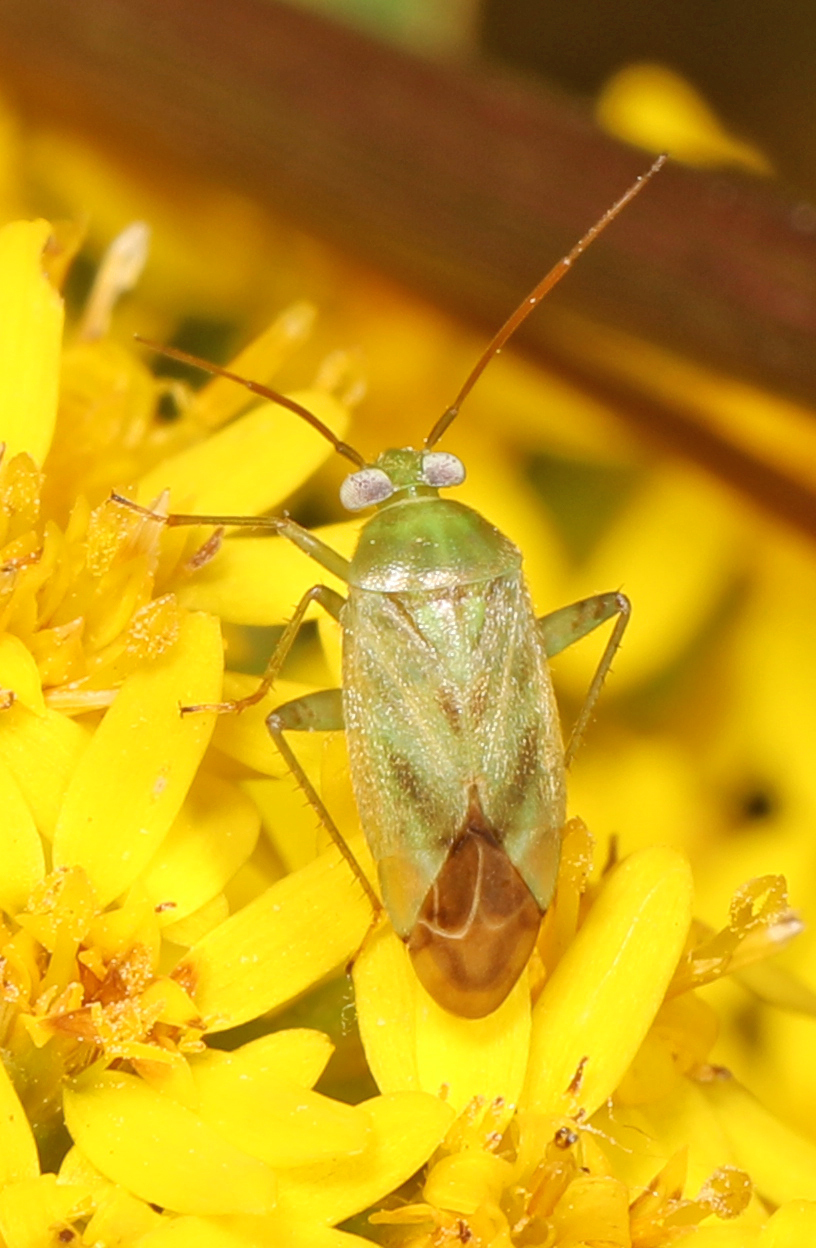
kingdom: Animalia
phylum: Arthropoda
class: Insecta
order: Hemiptera
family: Miridae
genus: Taylorilygus
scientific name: Taylorilygus apicalis
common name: Plant bug
